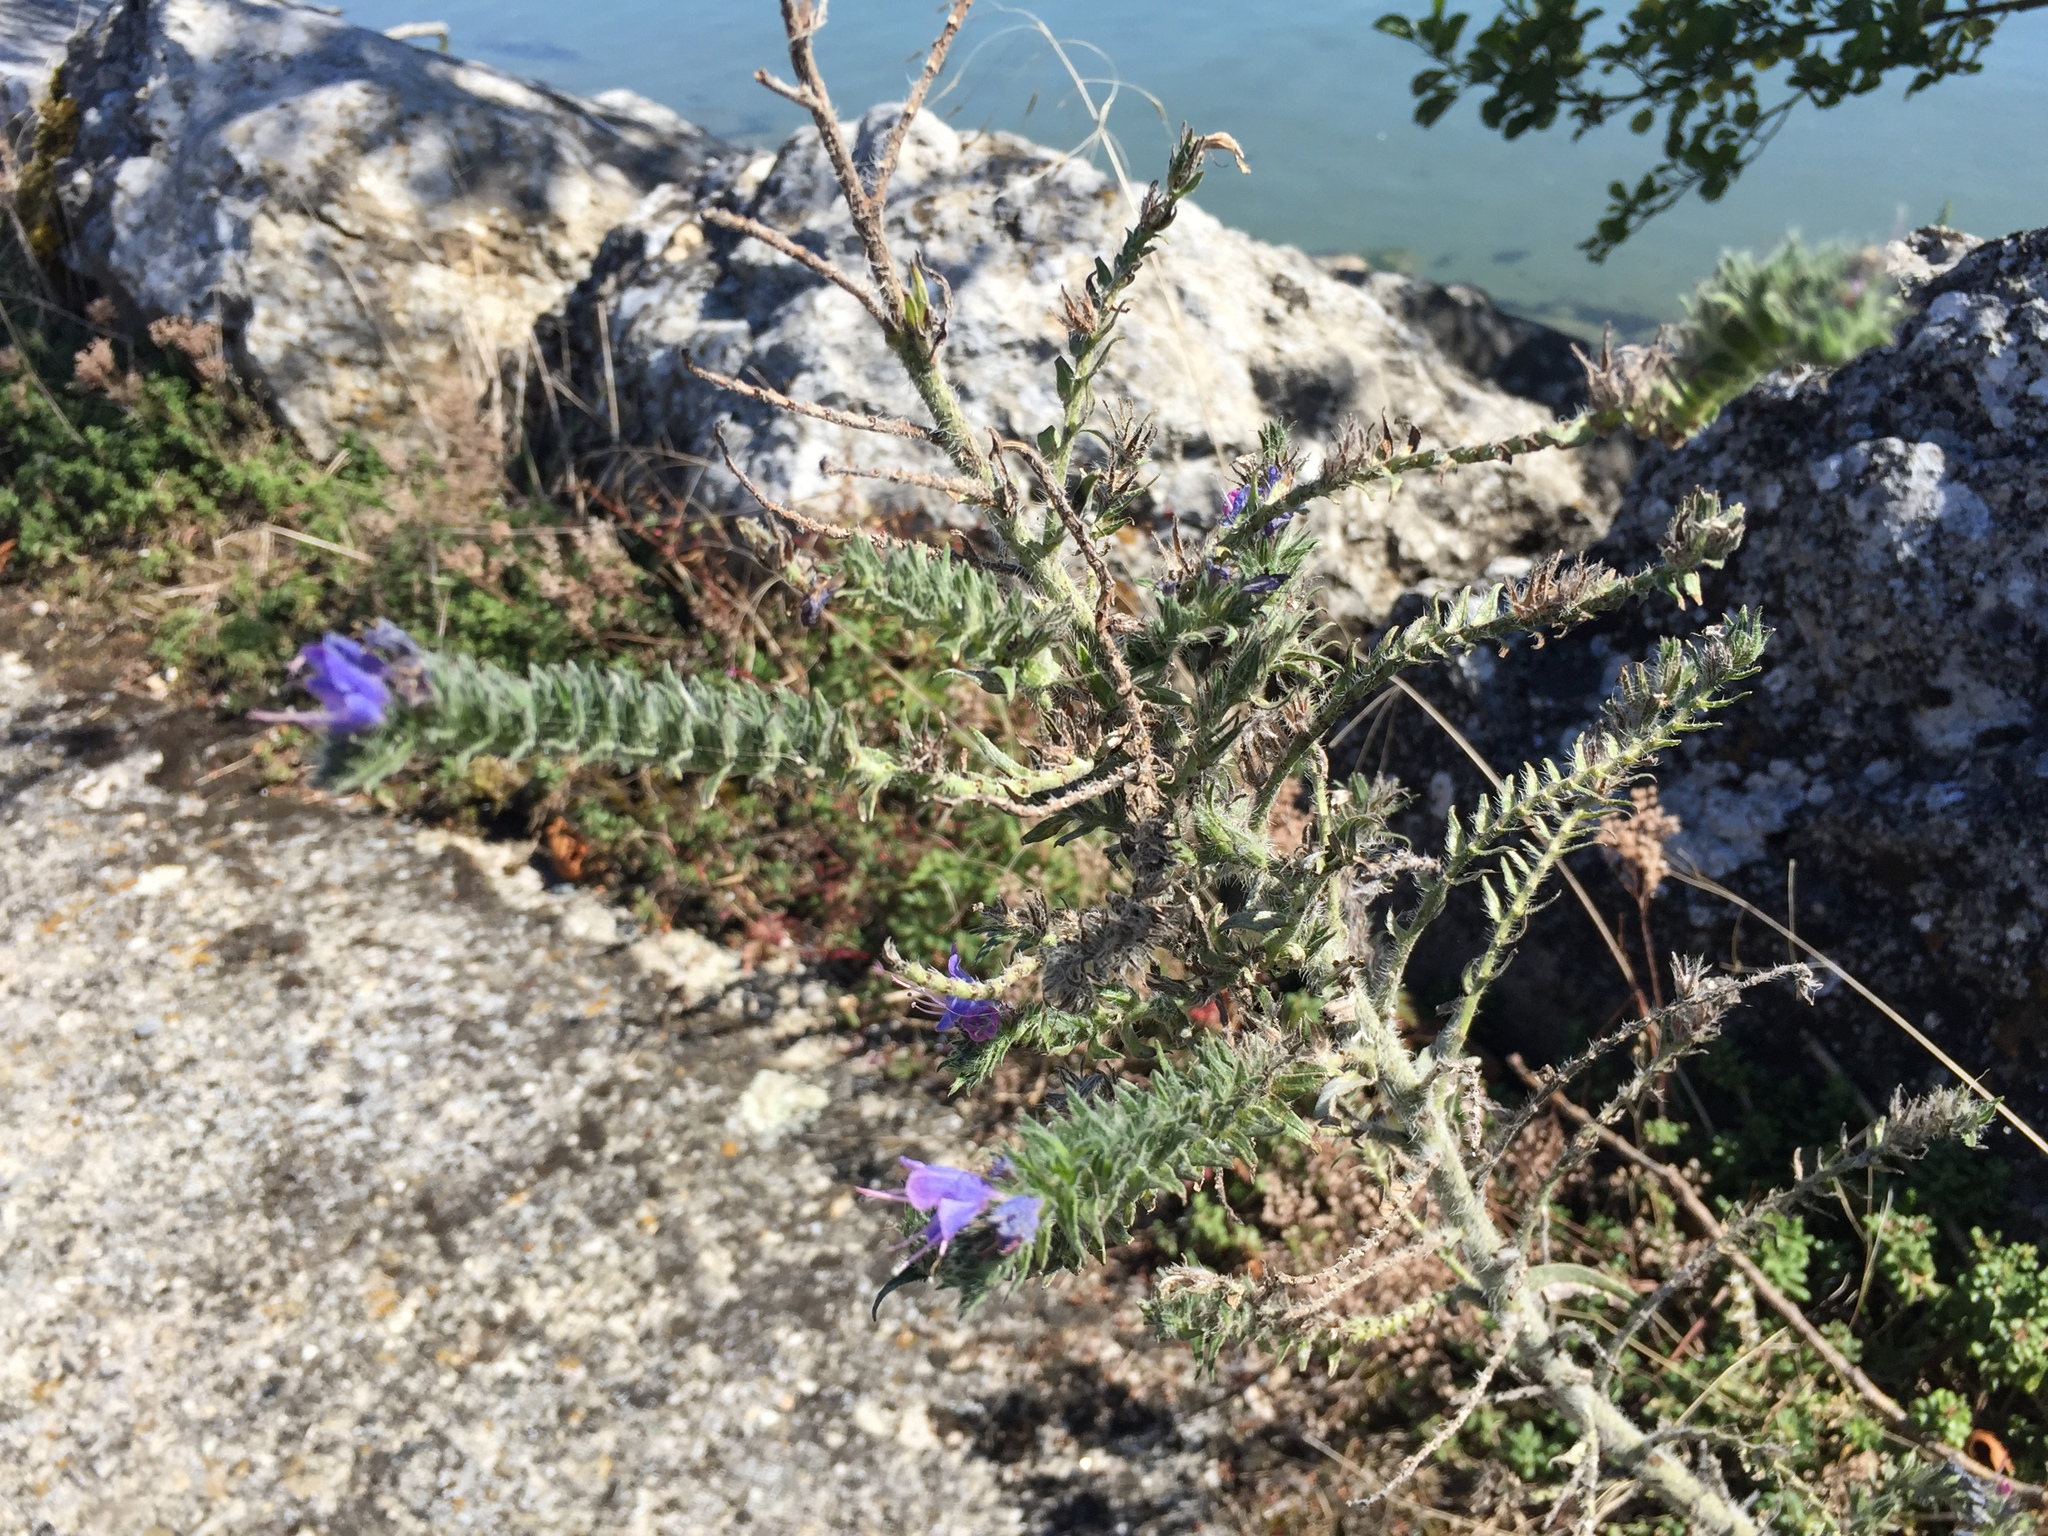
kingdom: Plantae
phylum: Tracheophyta
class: Magnoliopsida
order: Boraginales
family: Boraginaceae
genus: Echium
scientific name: Echium vulgare
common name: Common viper's bugloss
